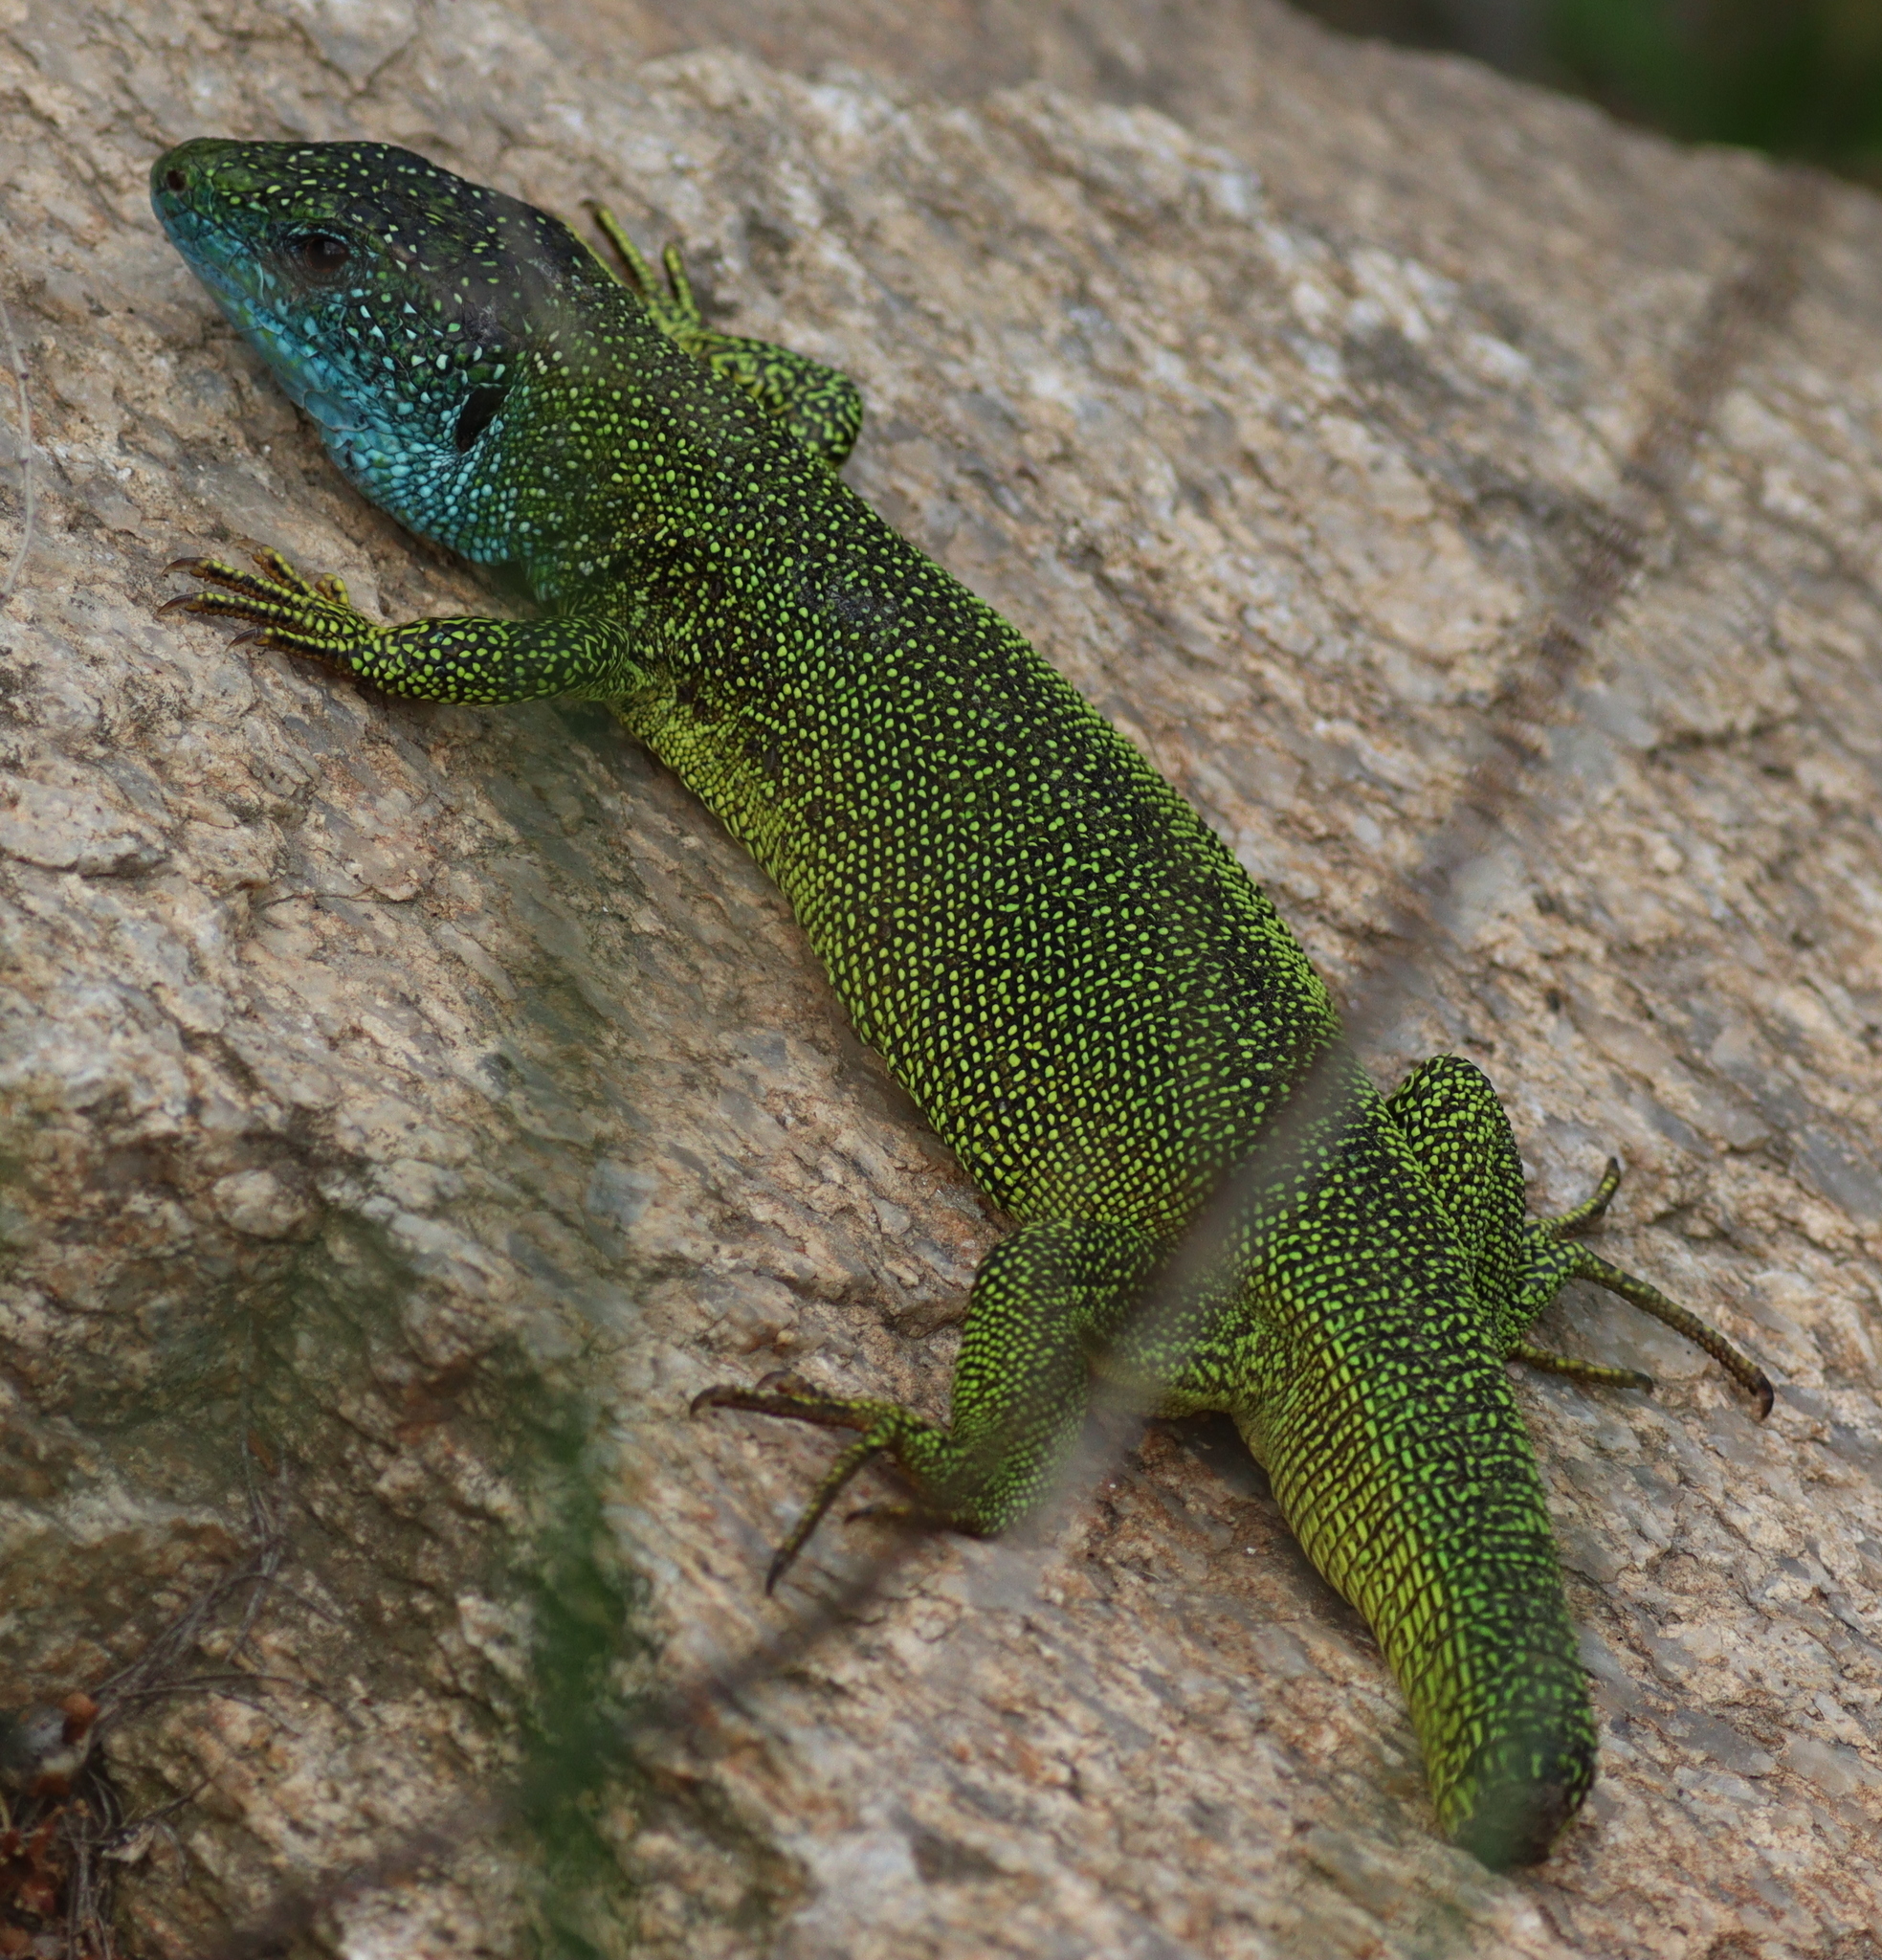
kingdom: Animalia
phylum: Chordata
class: Squamata
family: Lacertidae
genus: Lacerta
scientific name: Lacerta viridis
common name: European green lizard
